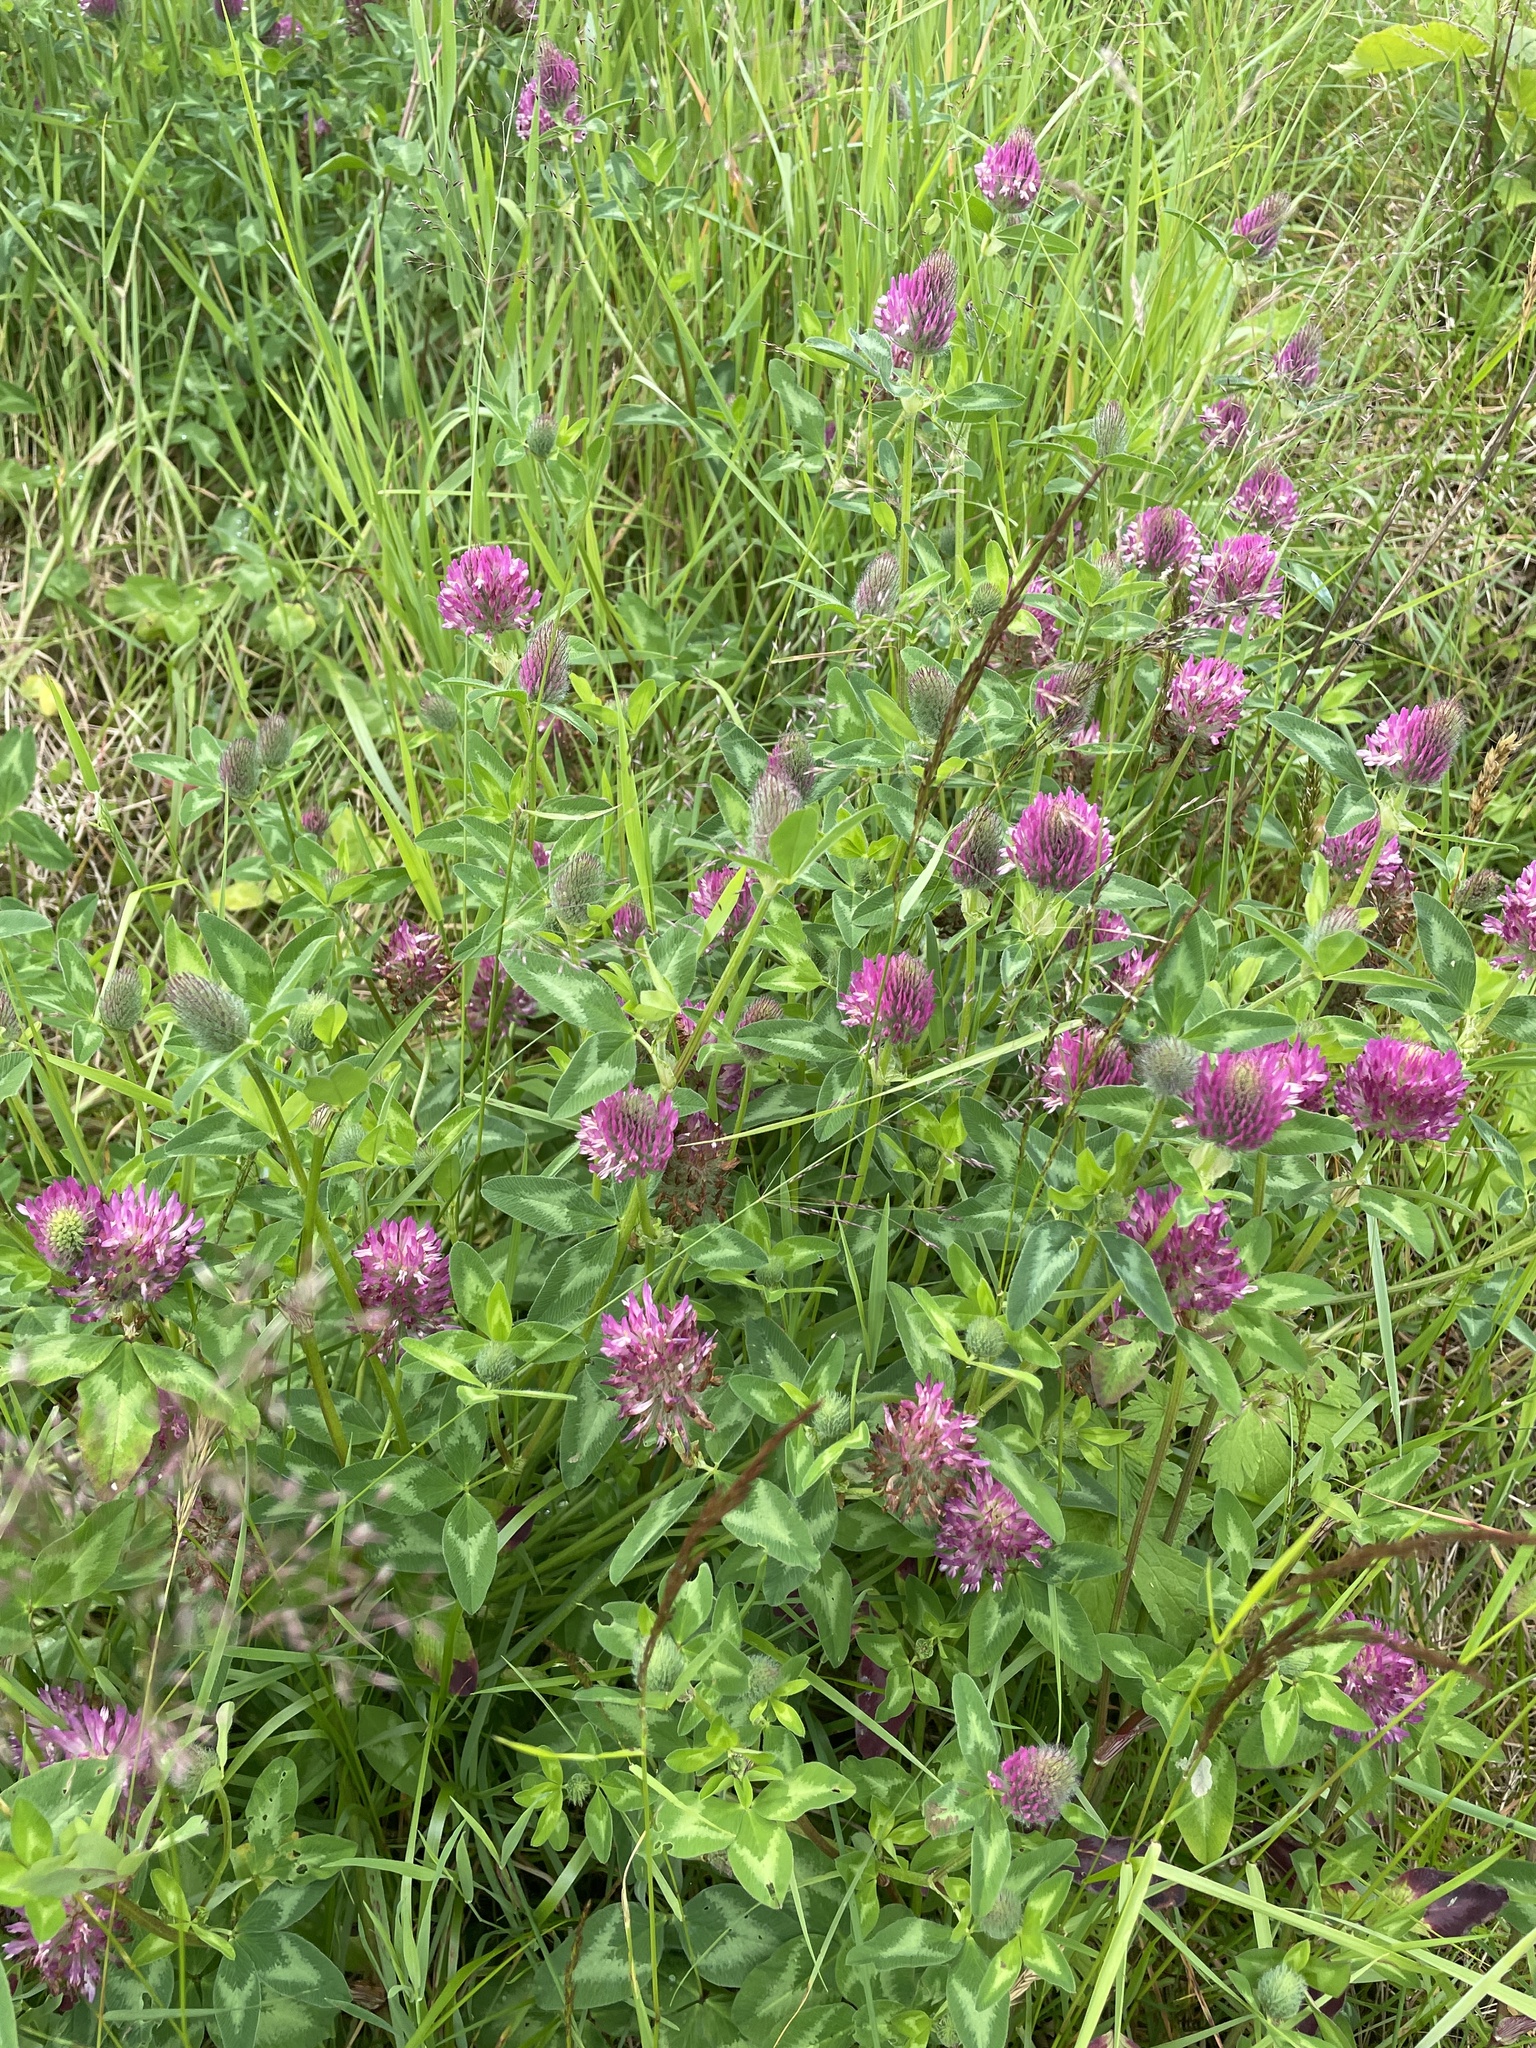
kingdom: Plantae
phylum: Tracheophyta
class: Magnoliopsida
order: Fabales
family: Fabaceae
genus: Trifolium
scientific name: Trifolium pratense
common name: Red clover
